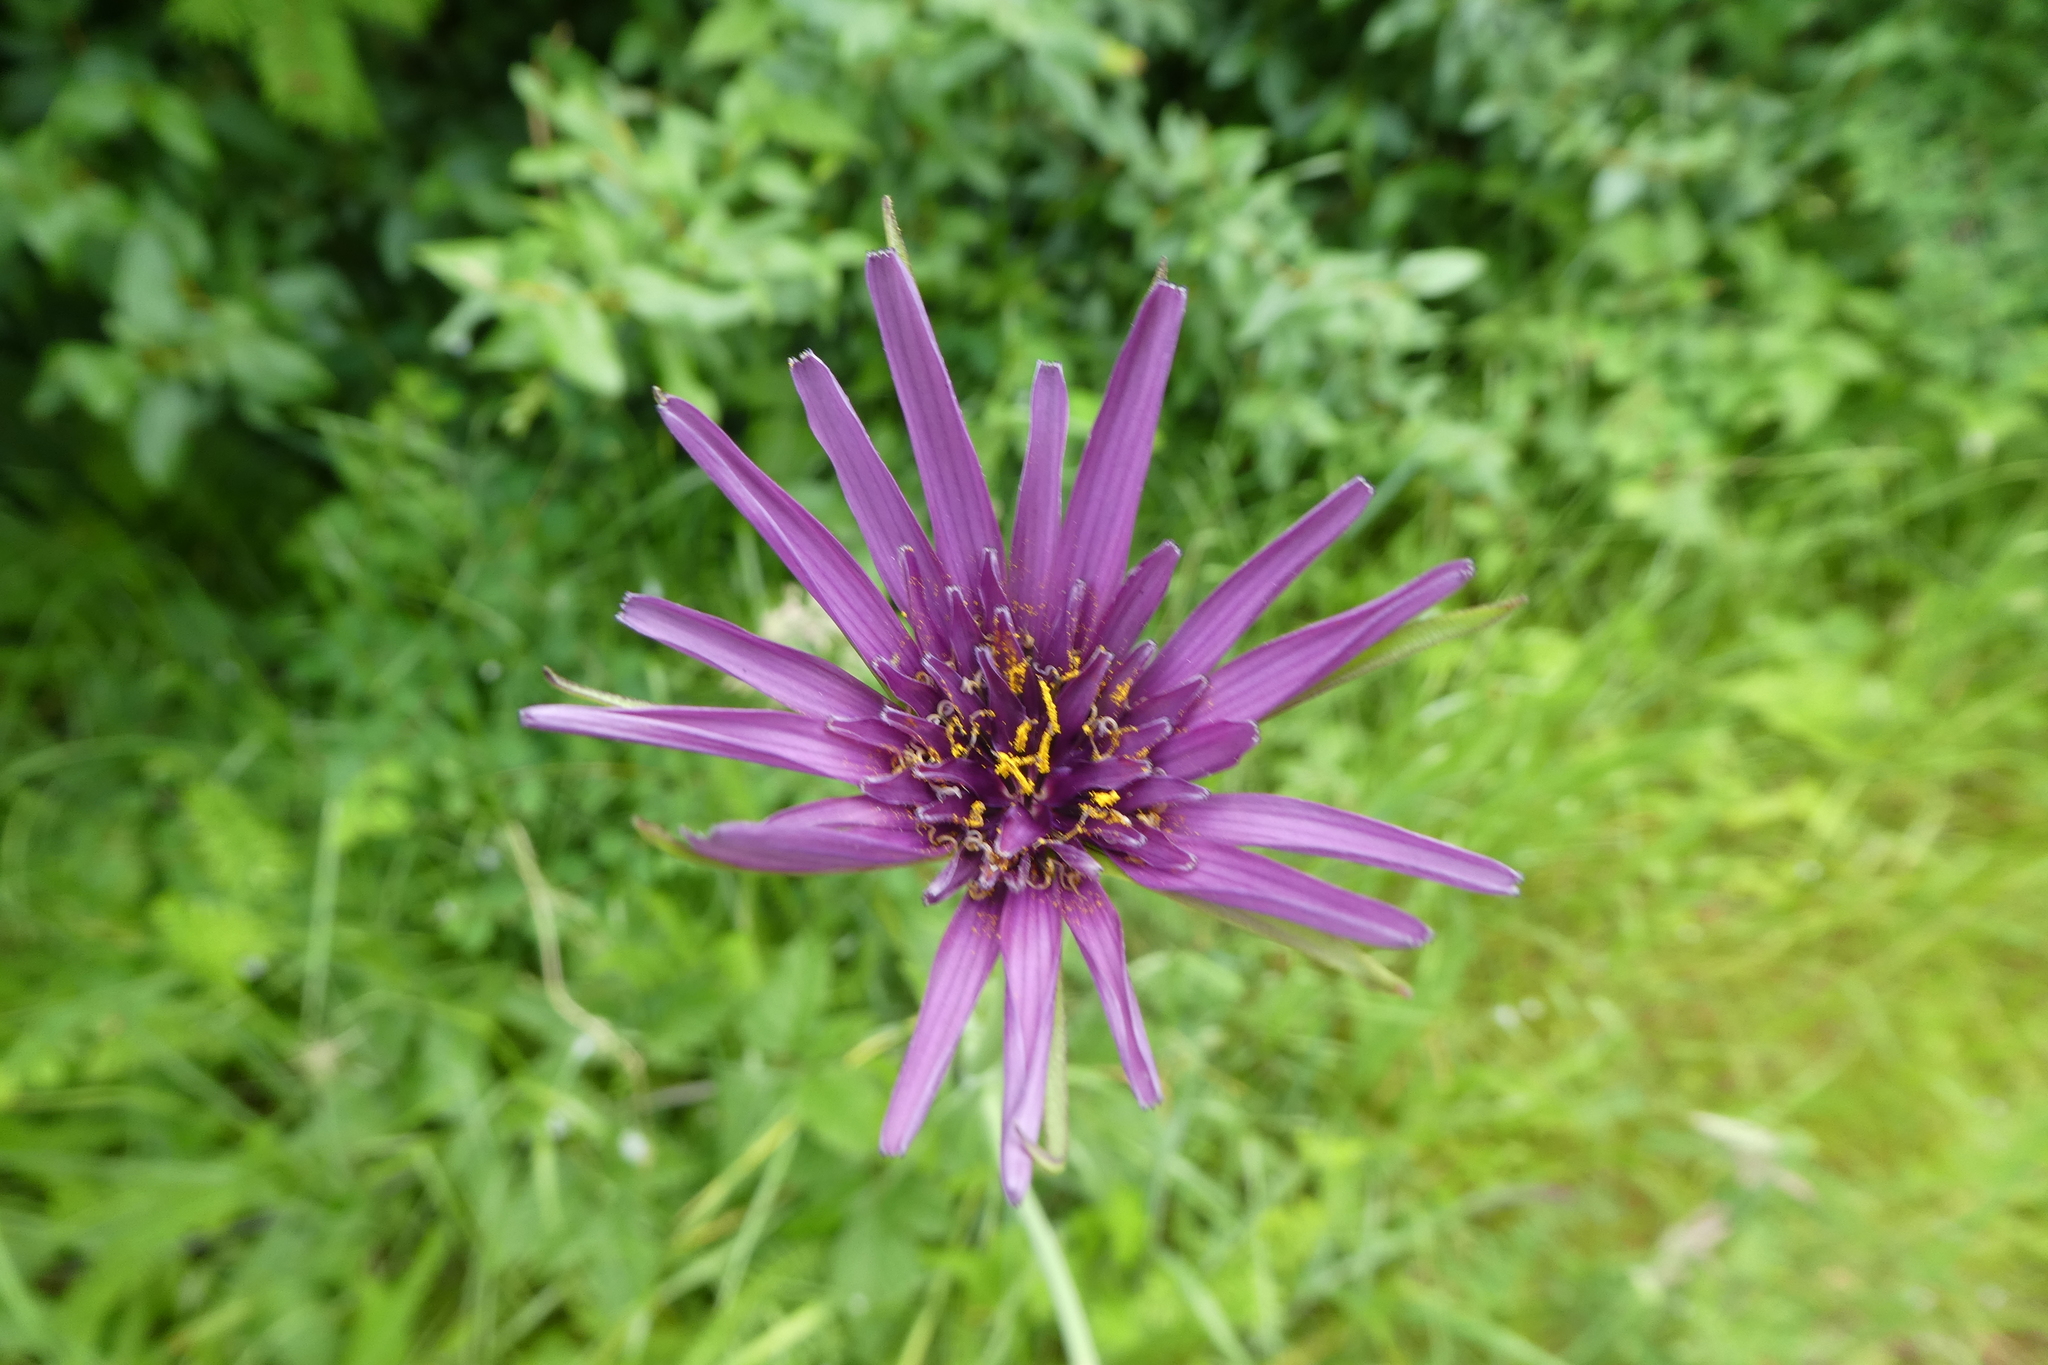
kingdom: Plantae
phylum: Tracheophyta
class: Magnoliopsida
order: Asterales
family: Asteraceae
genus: Tragopogon
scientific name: Tragopogon porrifolius
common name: Salsify
